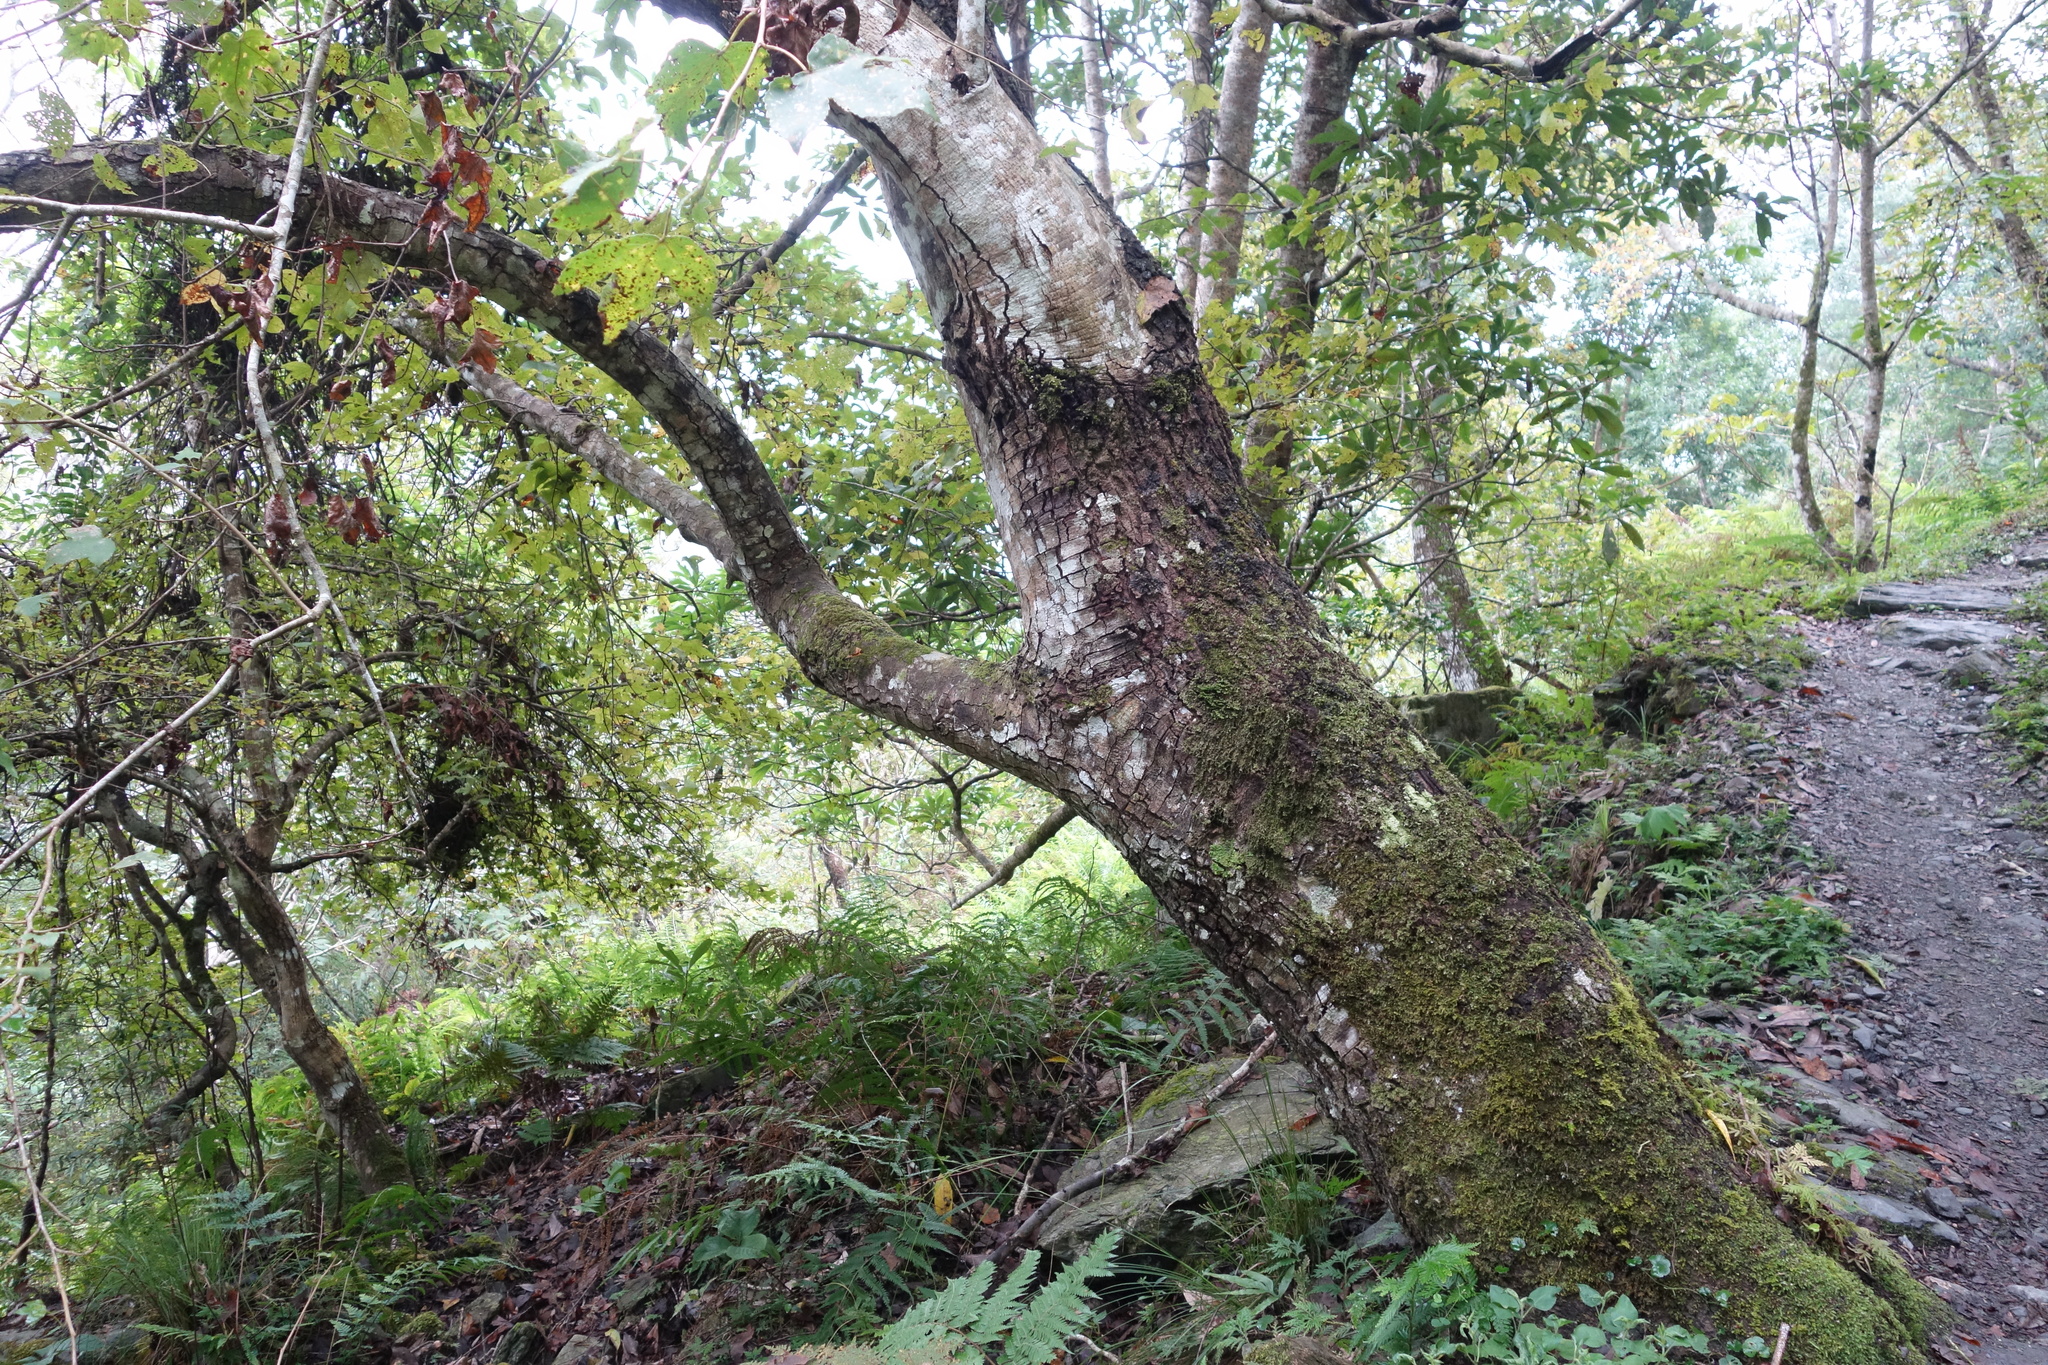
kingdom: Plantae
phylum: Tracheophyta
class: Magnoliopsida
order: Saxifragales
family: Altingiaceae
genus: Liquidambar
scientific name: Liquidambar formosana
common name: Chinese sweet gum
